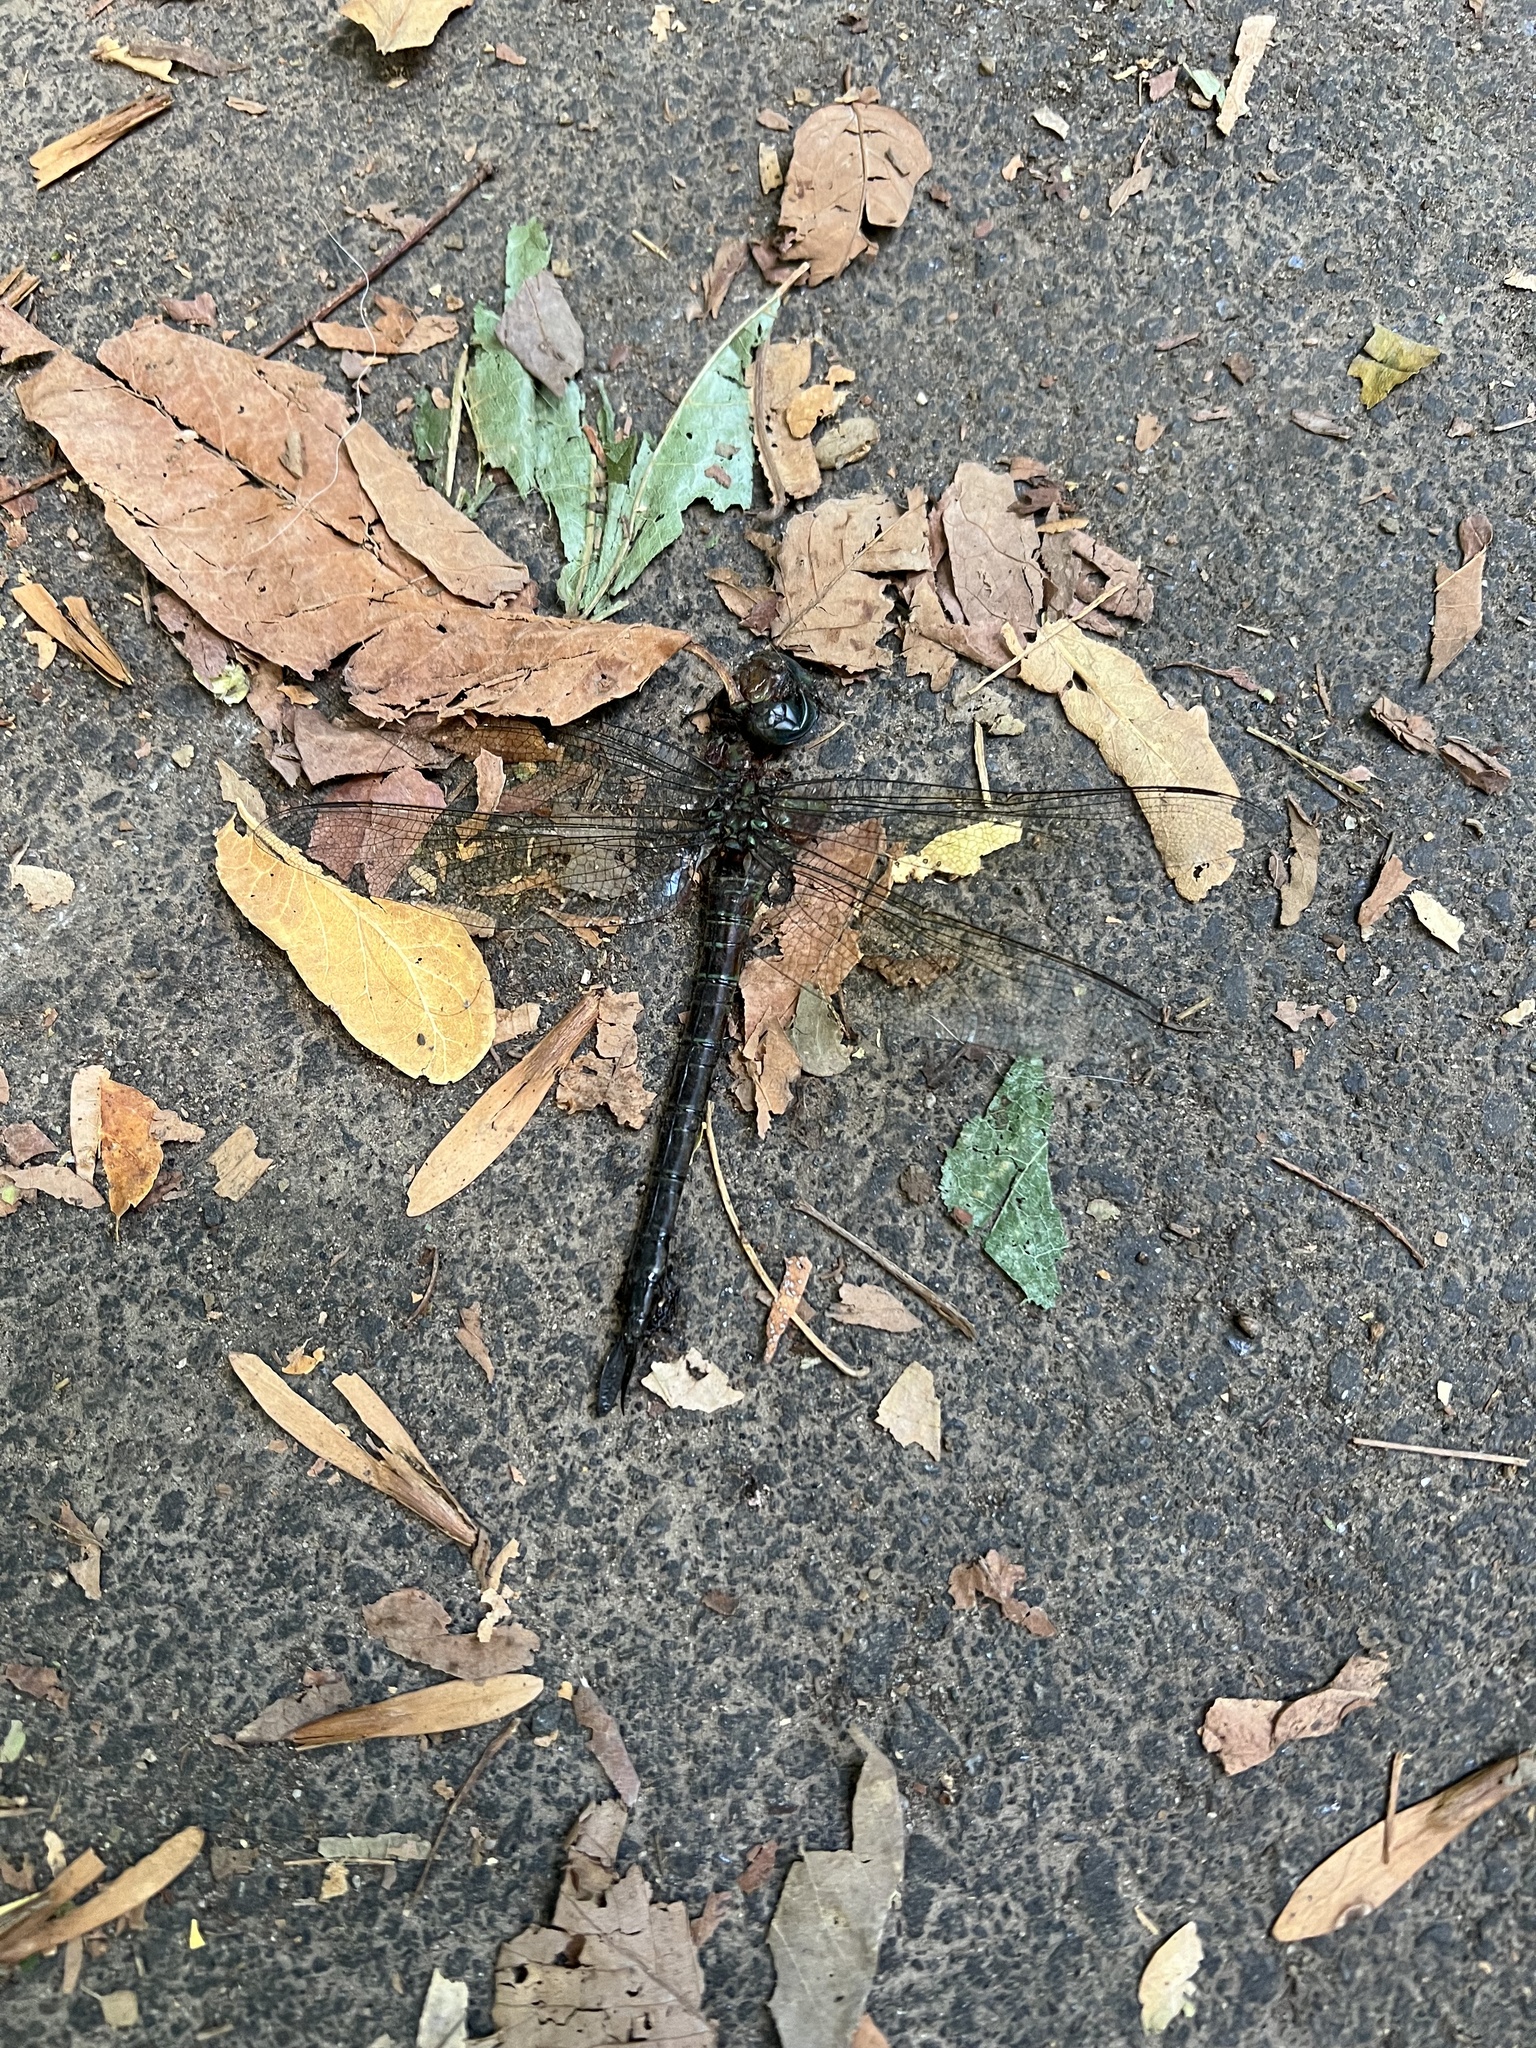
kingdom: Animalia
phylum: Arthropoda
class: Insecta
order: Odonata
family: Aeshnidae
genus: Epiaeschna
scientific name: Epiaeschna heros
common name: Swamp darner
